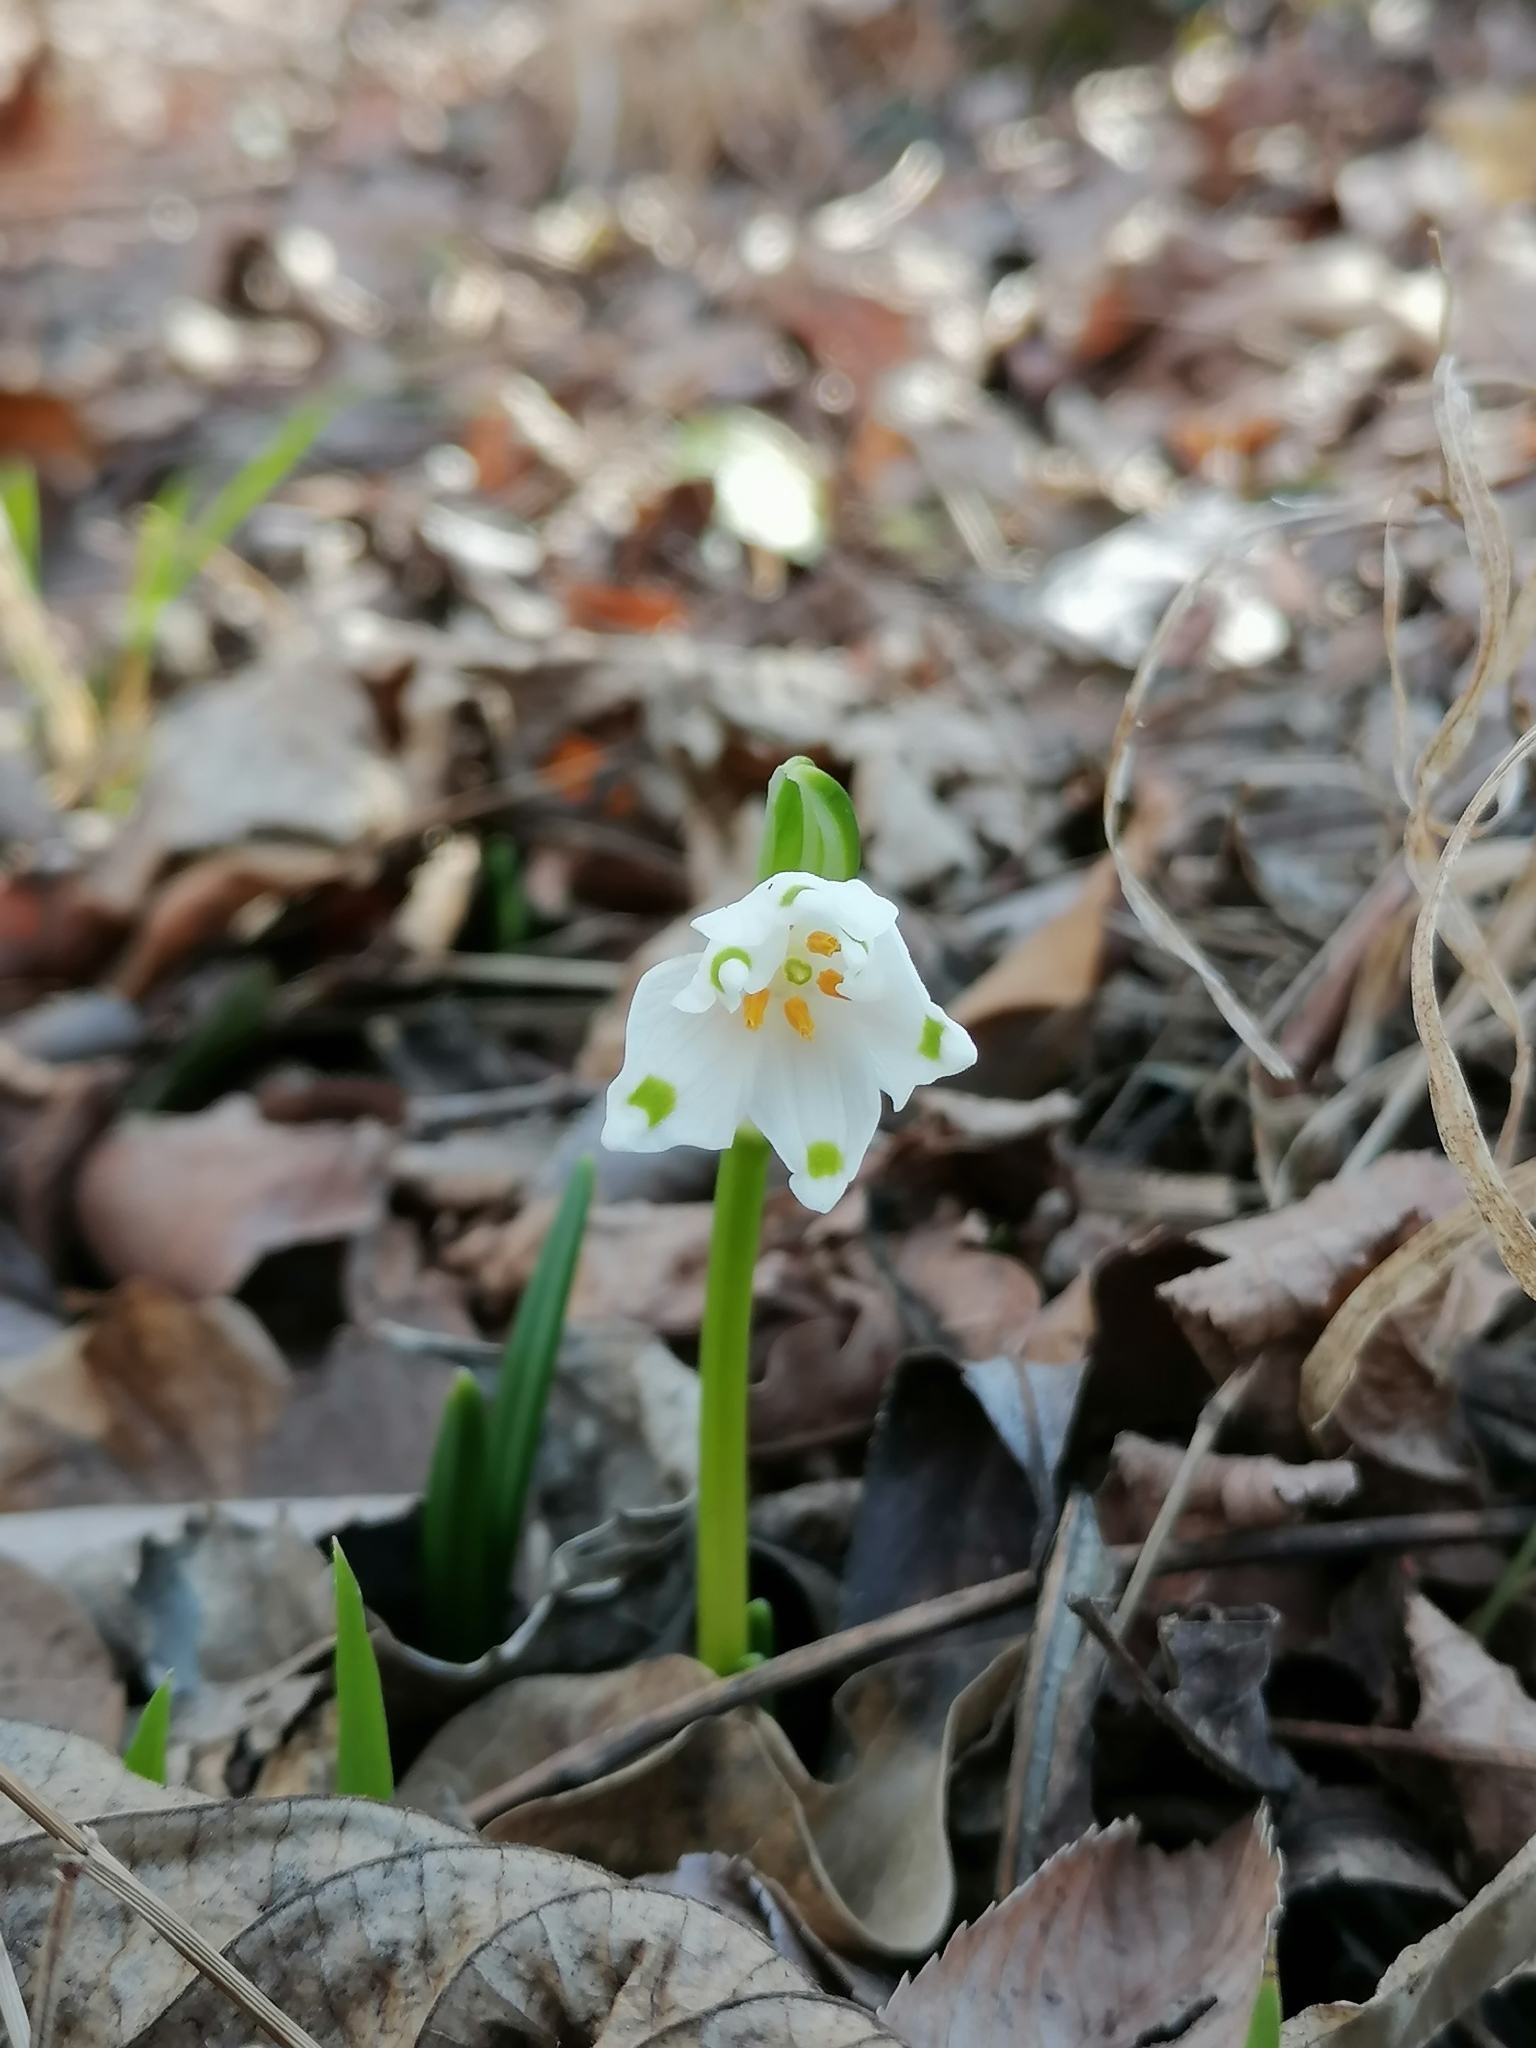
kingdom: Plantae
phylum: Tracheophyta
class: Liliopsida
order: Asparagales
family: Amaryllidaceae
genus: Leucojum
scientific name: Leucojum vernum
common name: Spring snowflake
